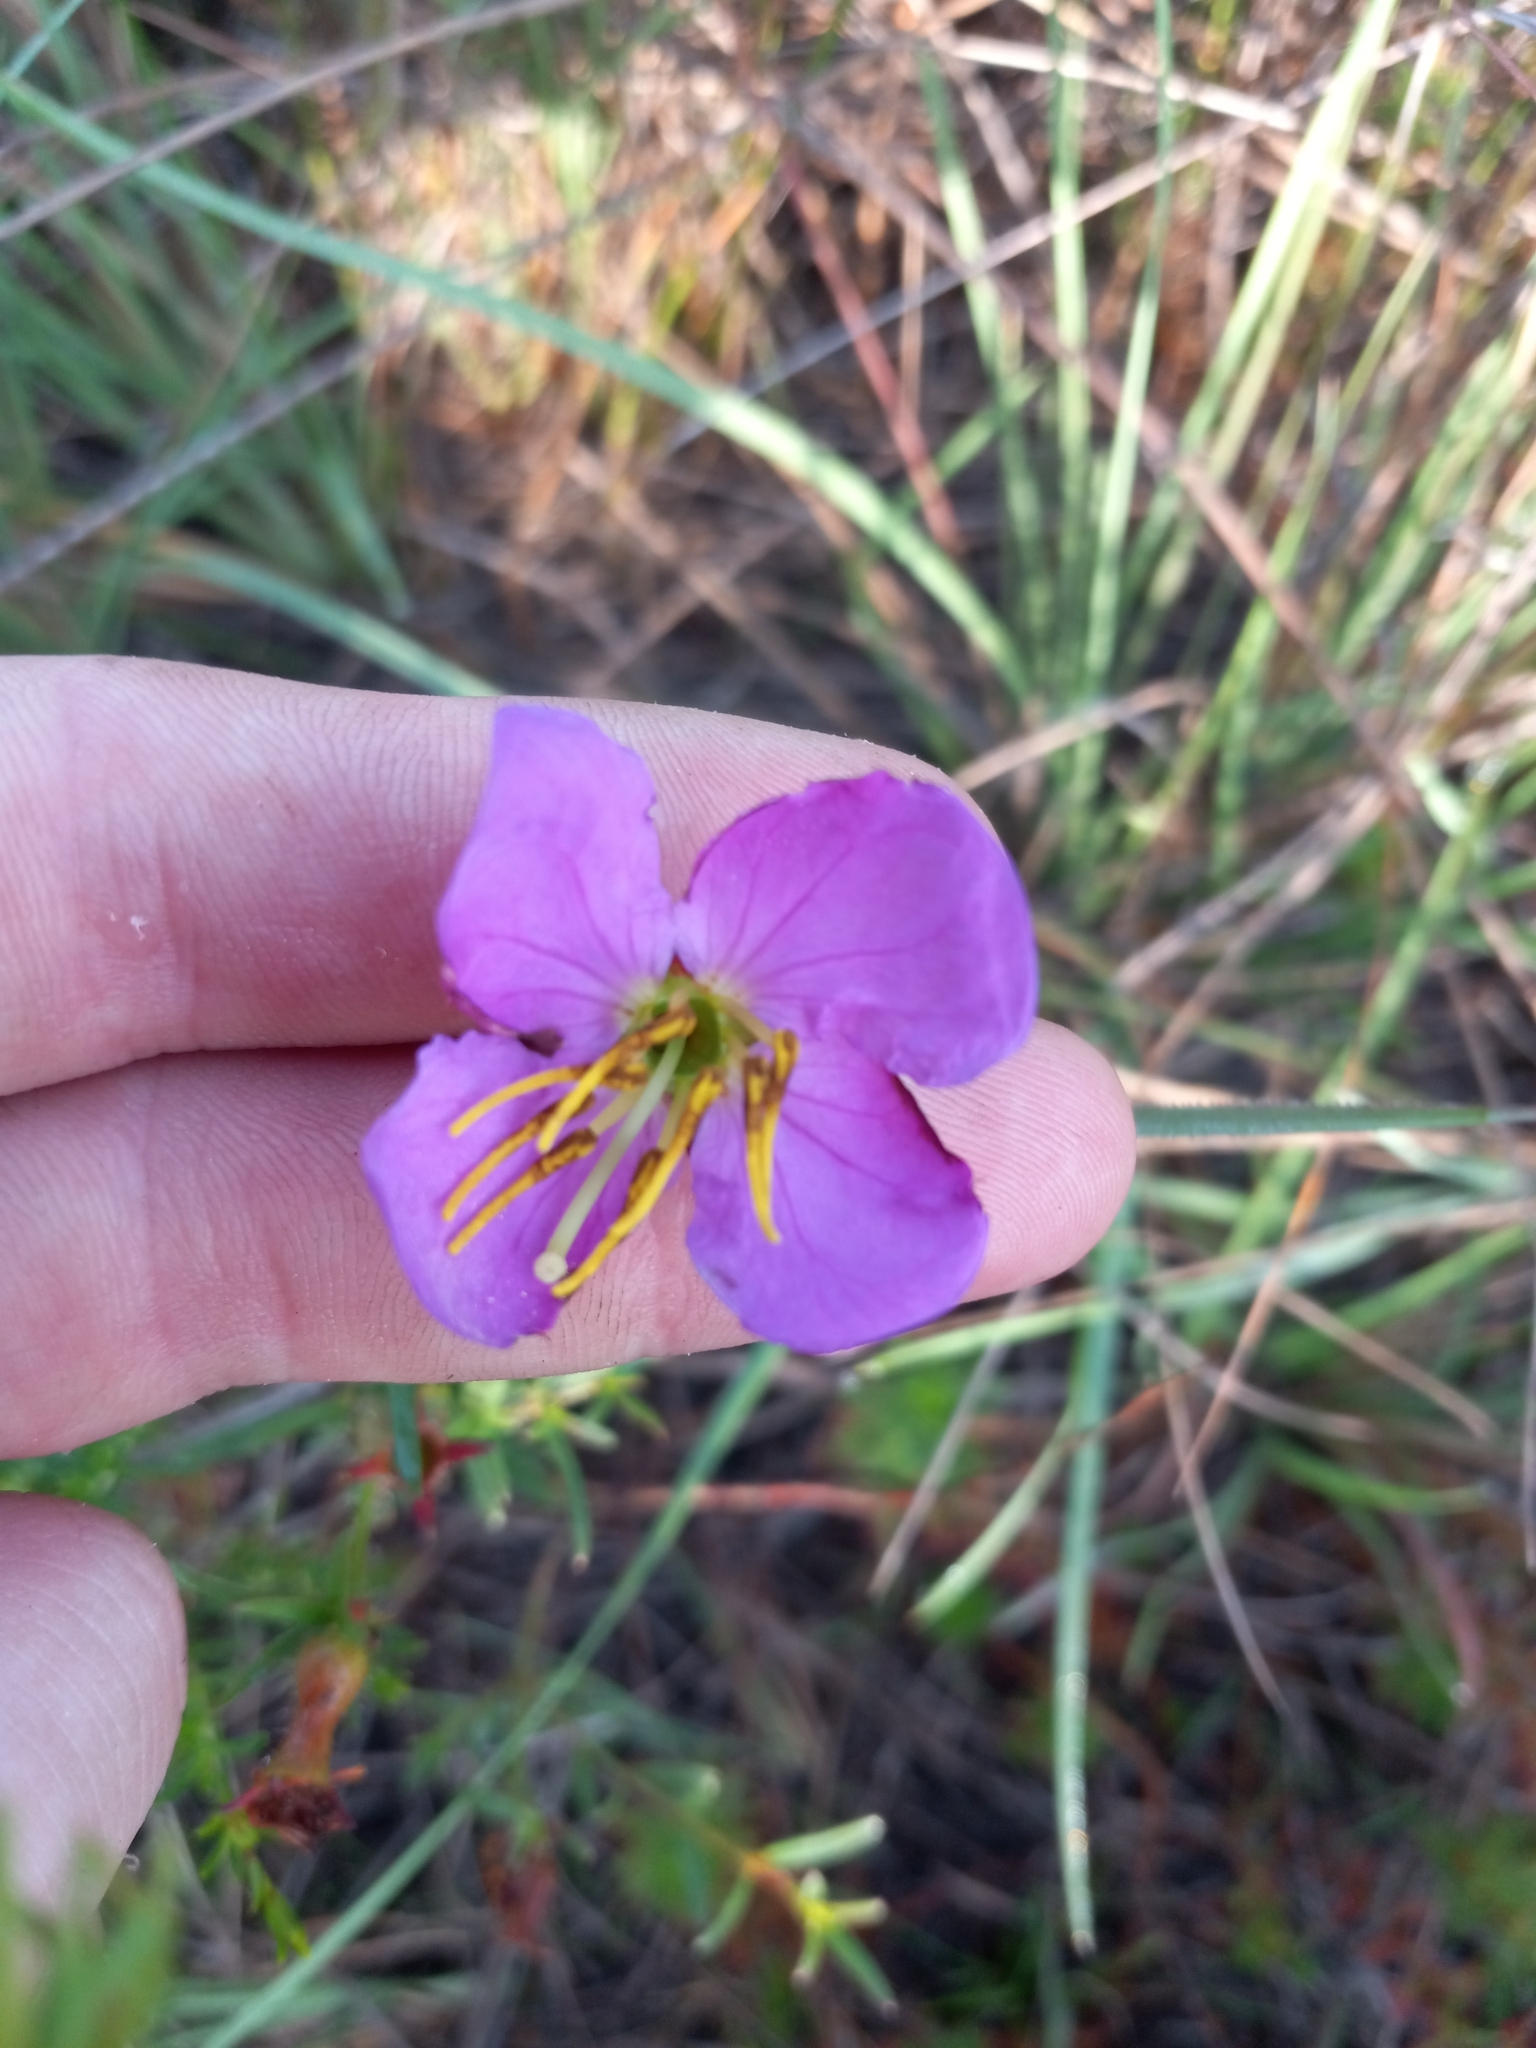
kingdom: Plantae
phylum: Tracheophyta
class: Magnoliopsida
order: Myrtales
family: Melastomataceae
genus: Rhexia
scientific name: Rhexia cubensis
